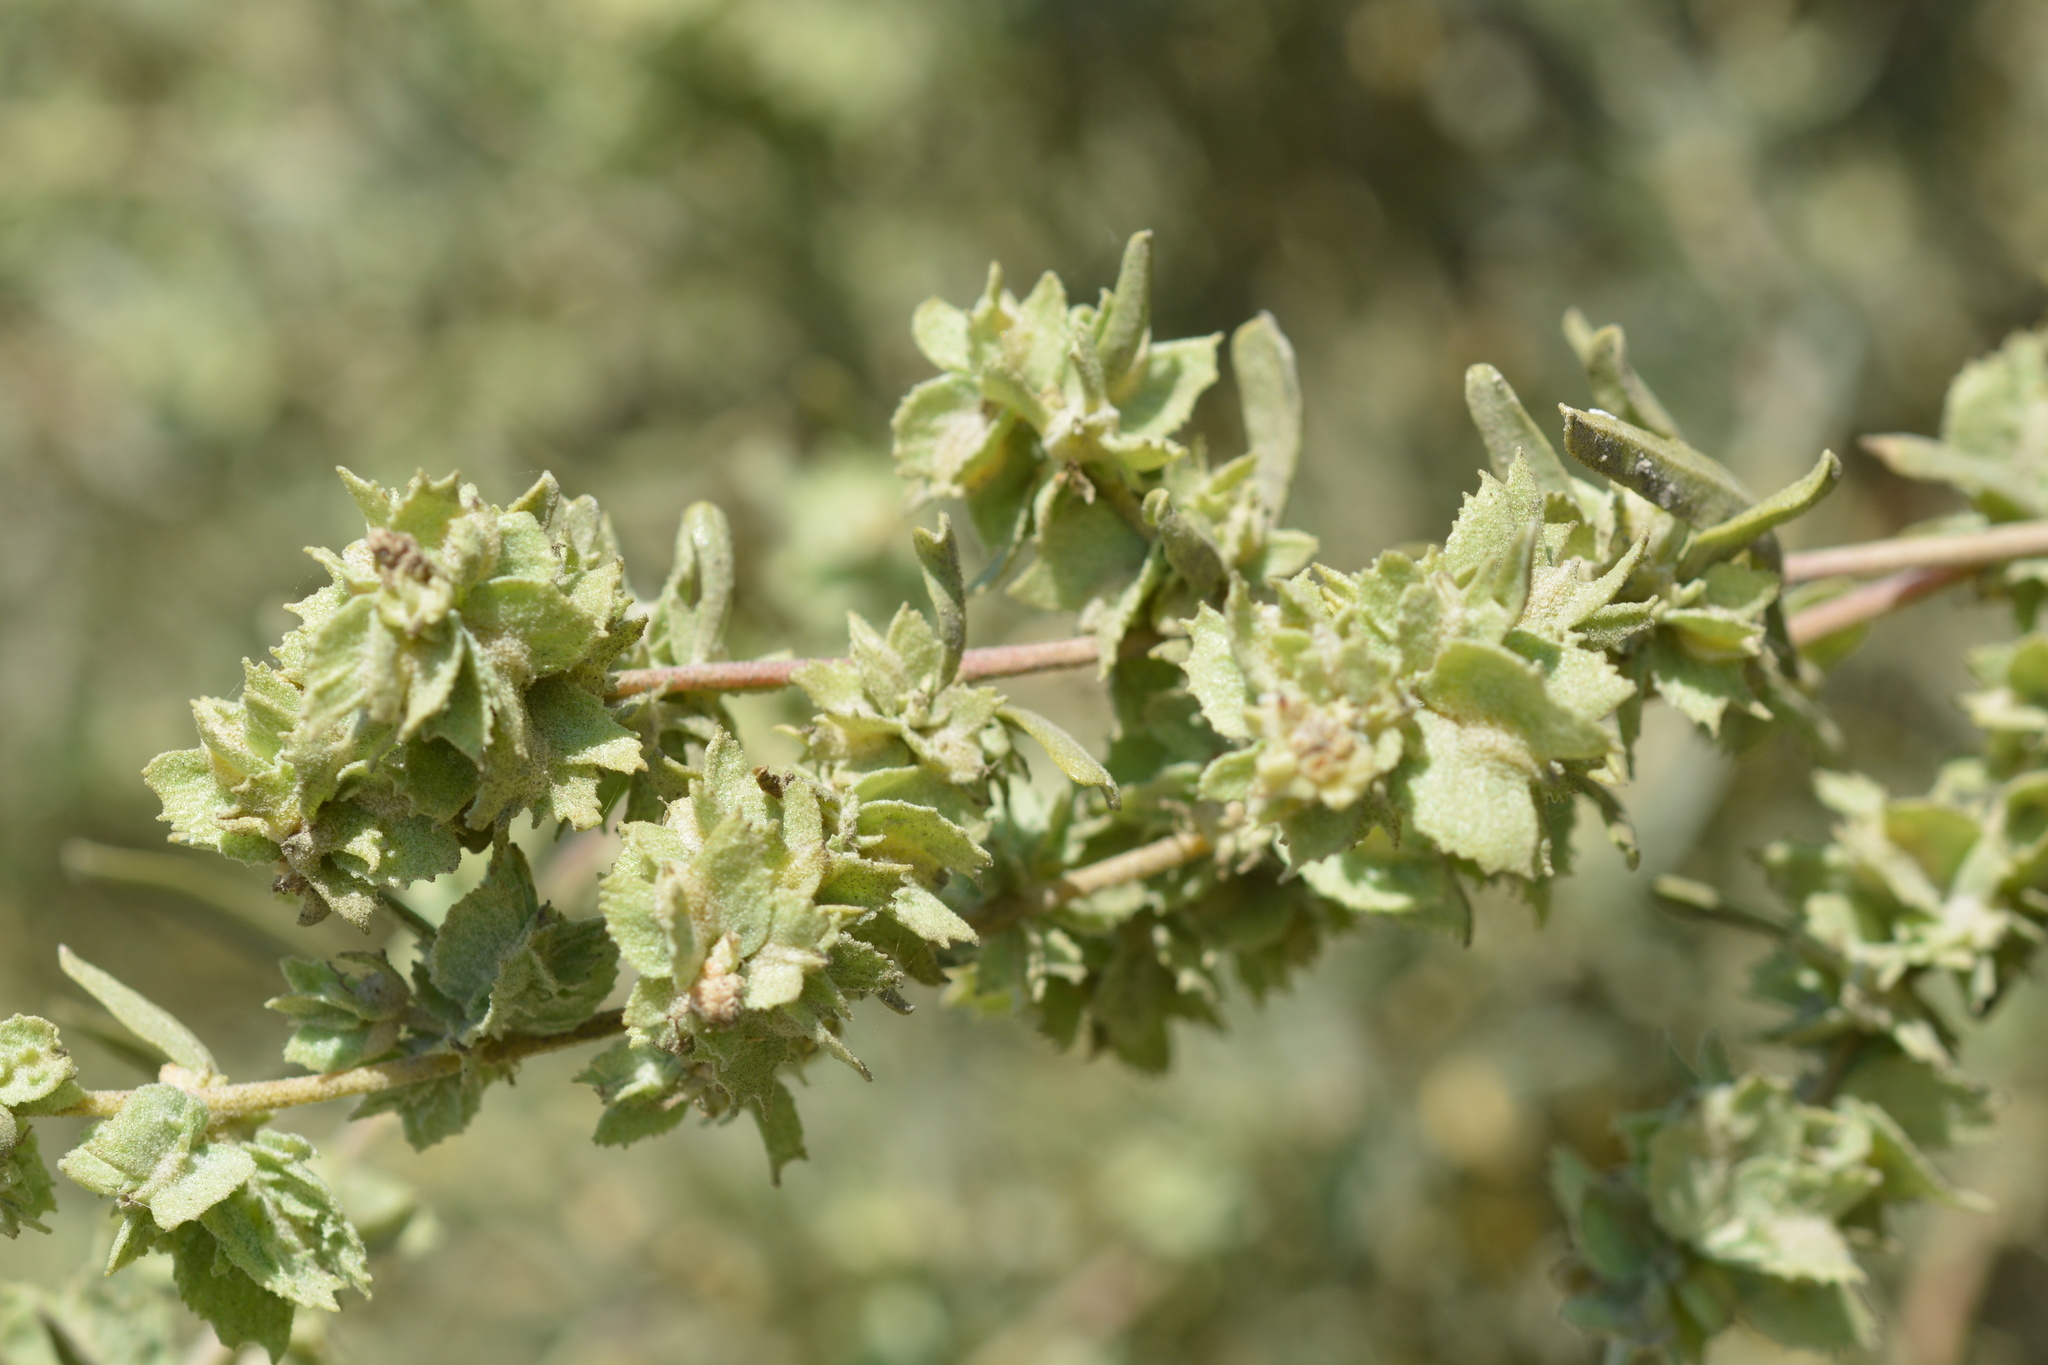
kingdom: Plantae
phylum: Tracheophyta
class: Magnoliopsida
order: Caryophyllales
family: Amaranthaceae
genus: Atriplex
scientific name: Atriplex canescens
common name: Four-wing saltbush
